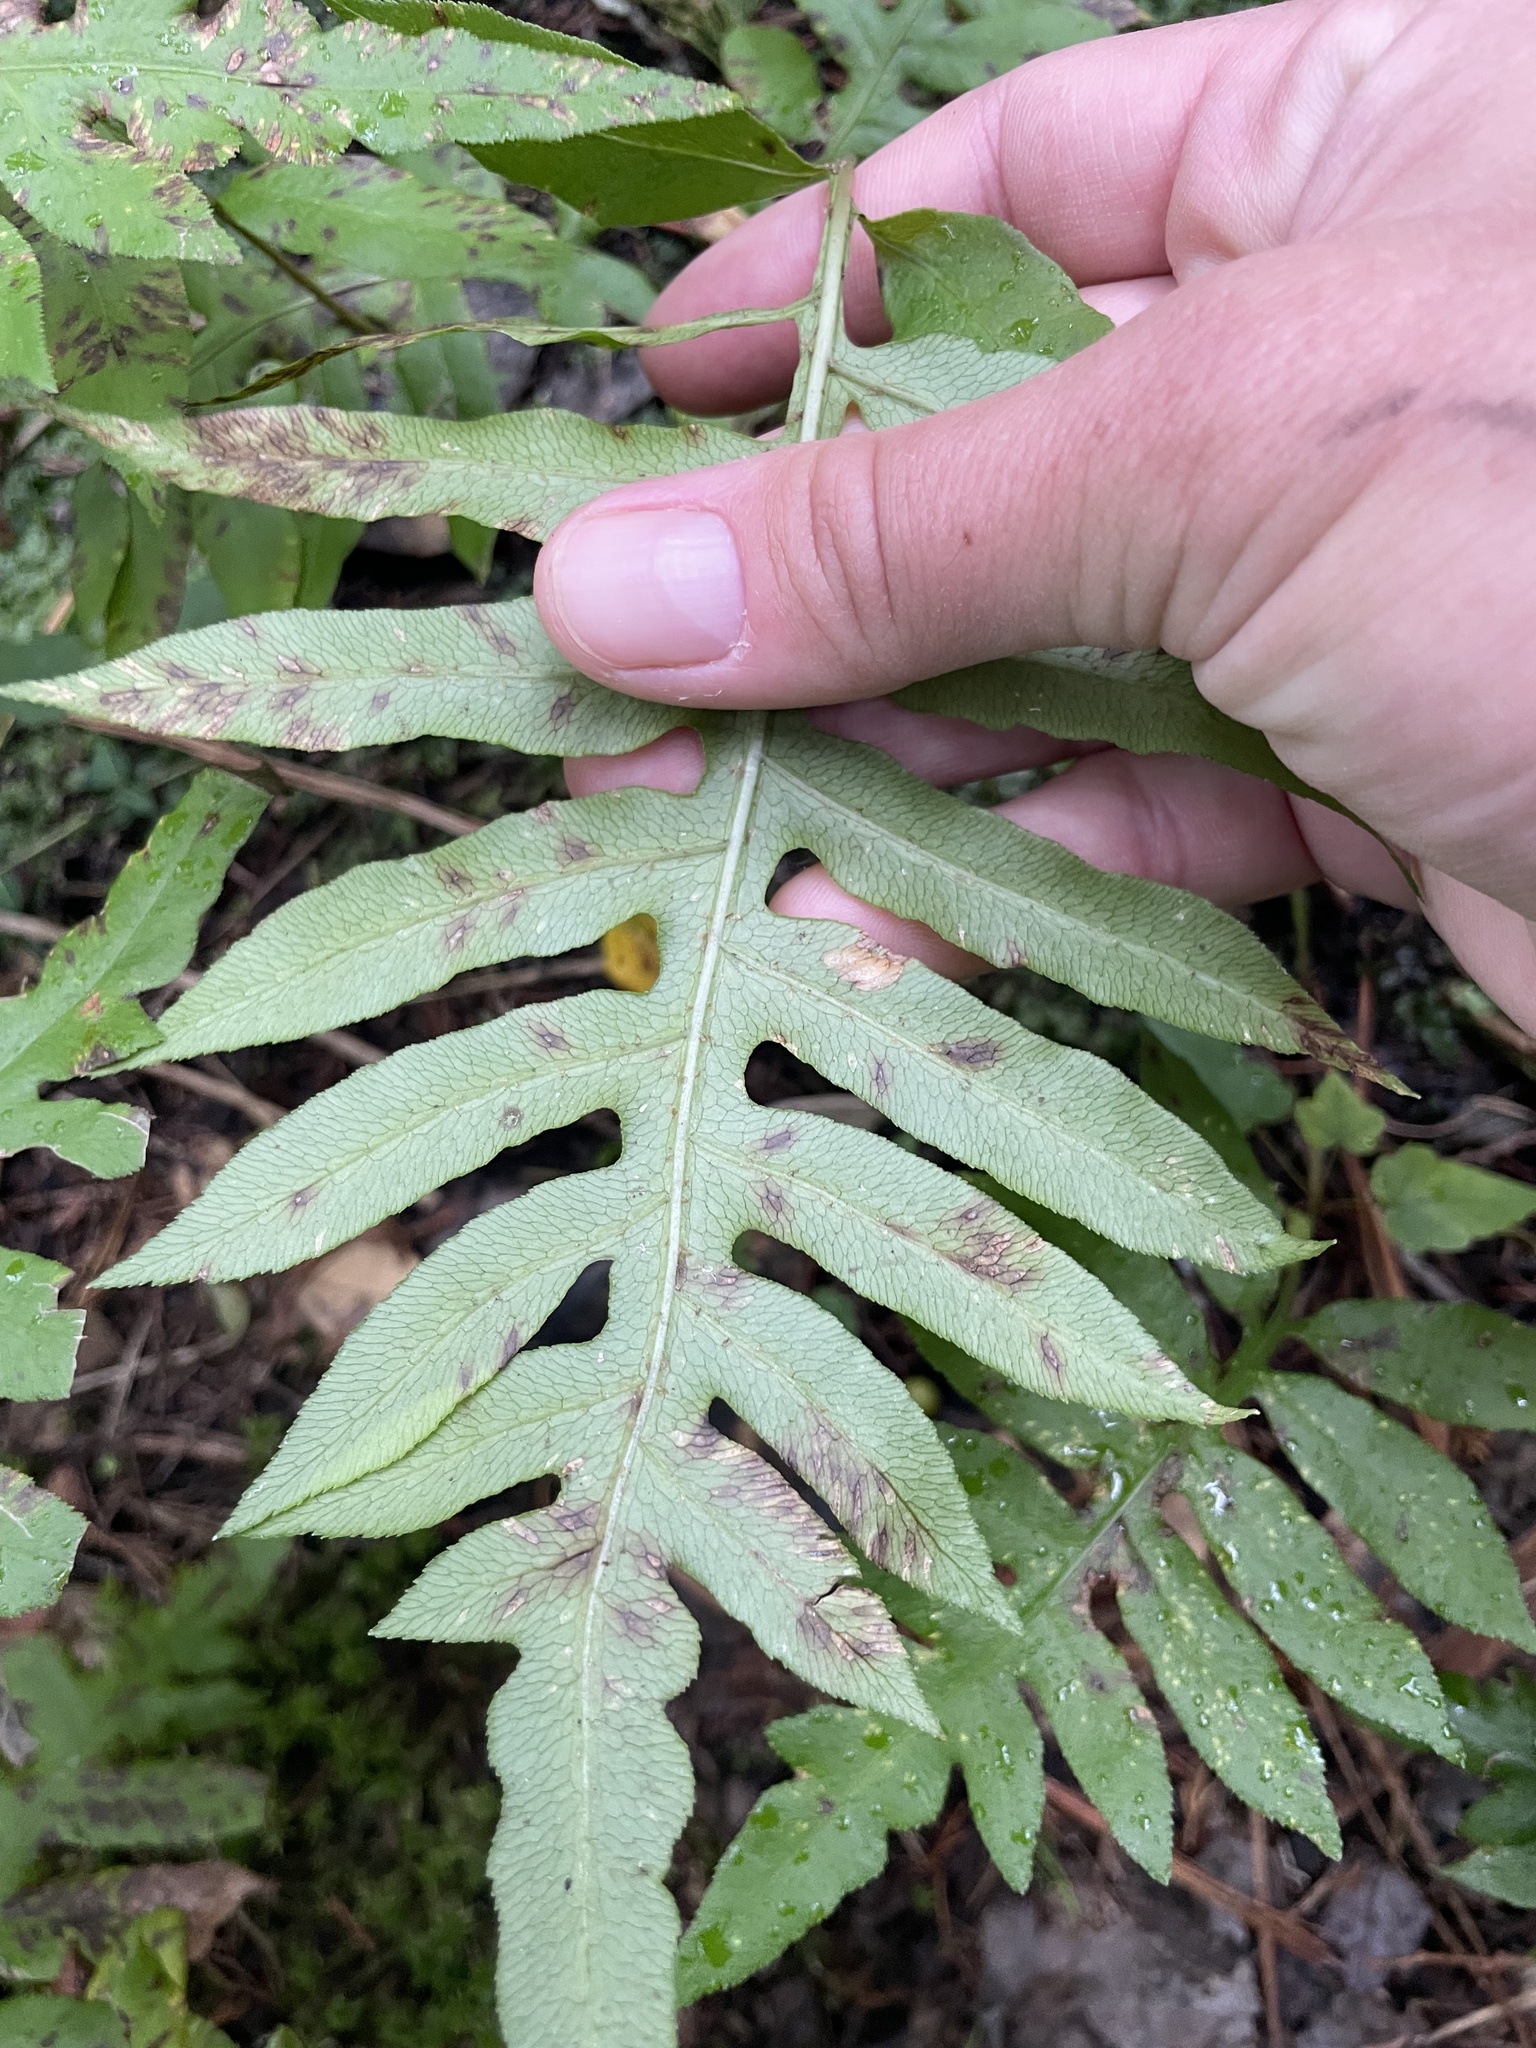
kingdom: Plantae
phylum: Tracheophyta
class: Polypodiopsida
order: Polypodiales
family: Blechnaceae
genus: Lorinseria
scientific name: Lorinseria areolata
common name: Dwarf chain fern
